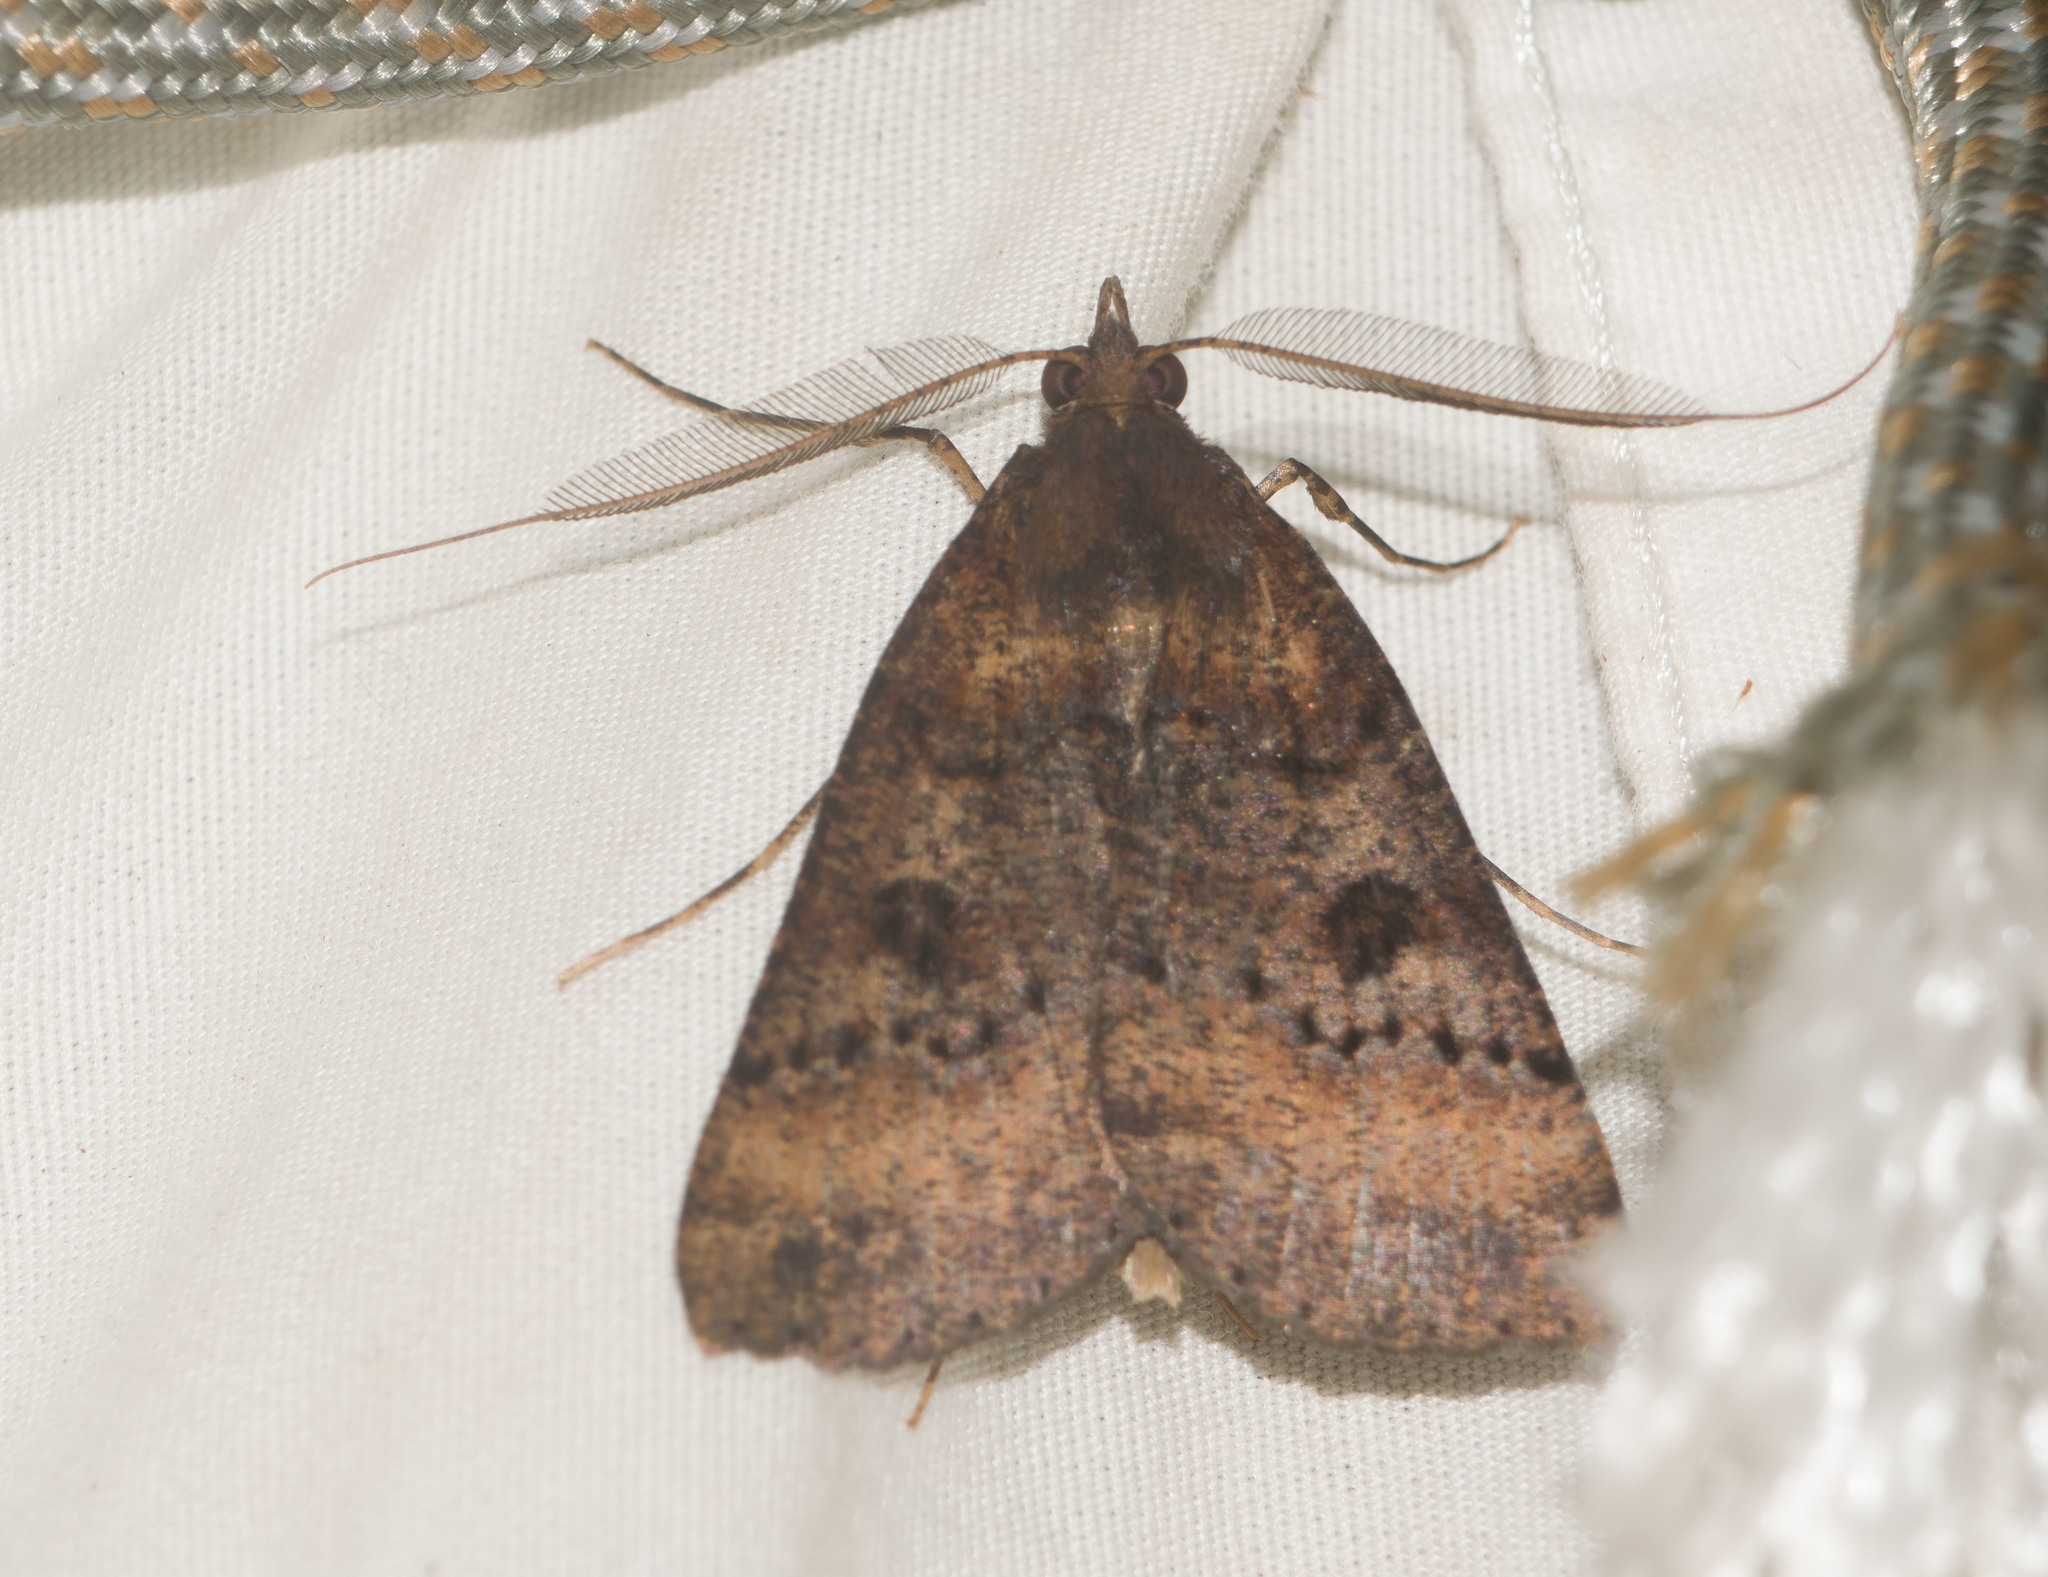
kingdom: Animalia
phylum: Arthropoda
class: Insecta
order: Lepidoptera
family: Geometridae
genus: Scotorythra
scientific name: Scotorythra rara
